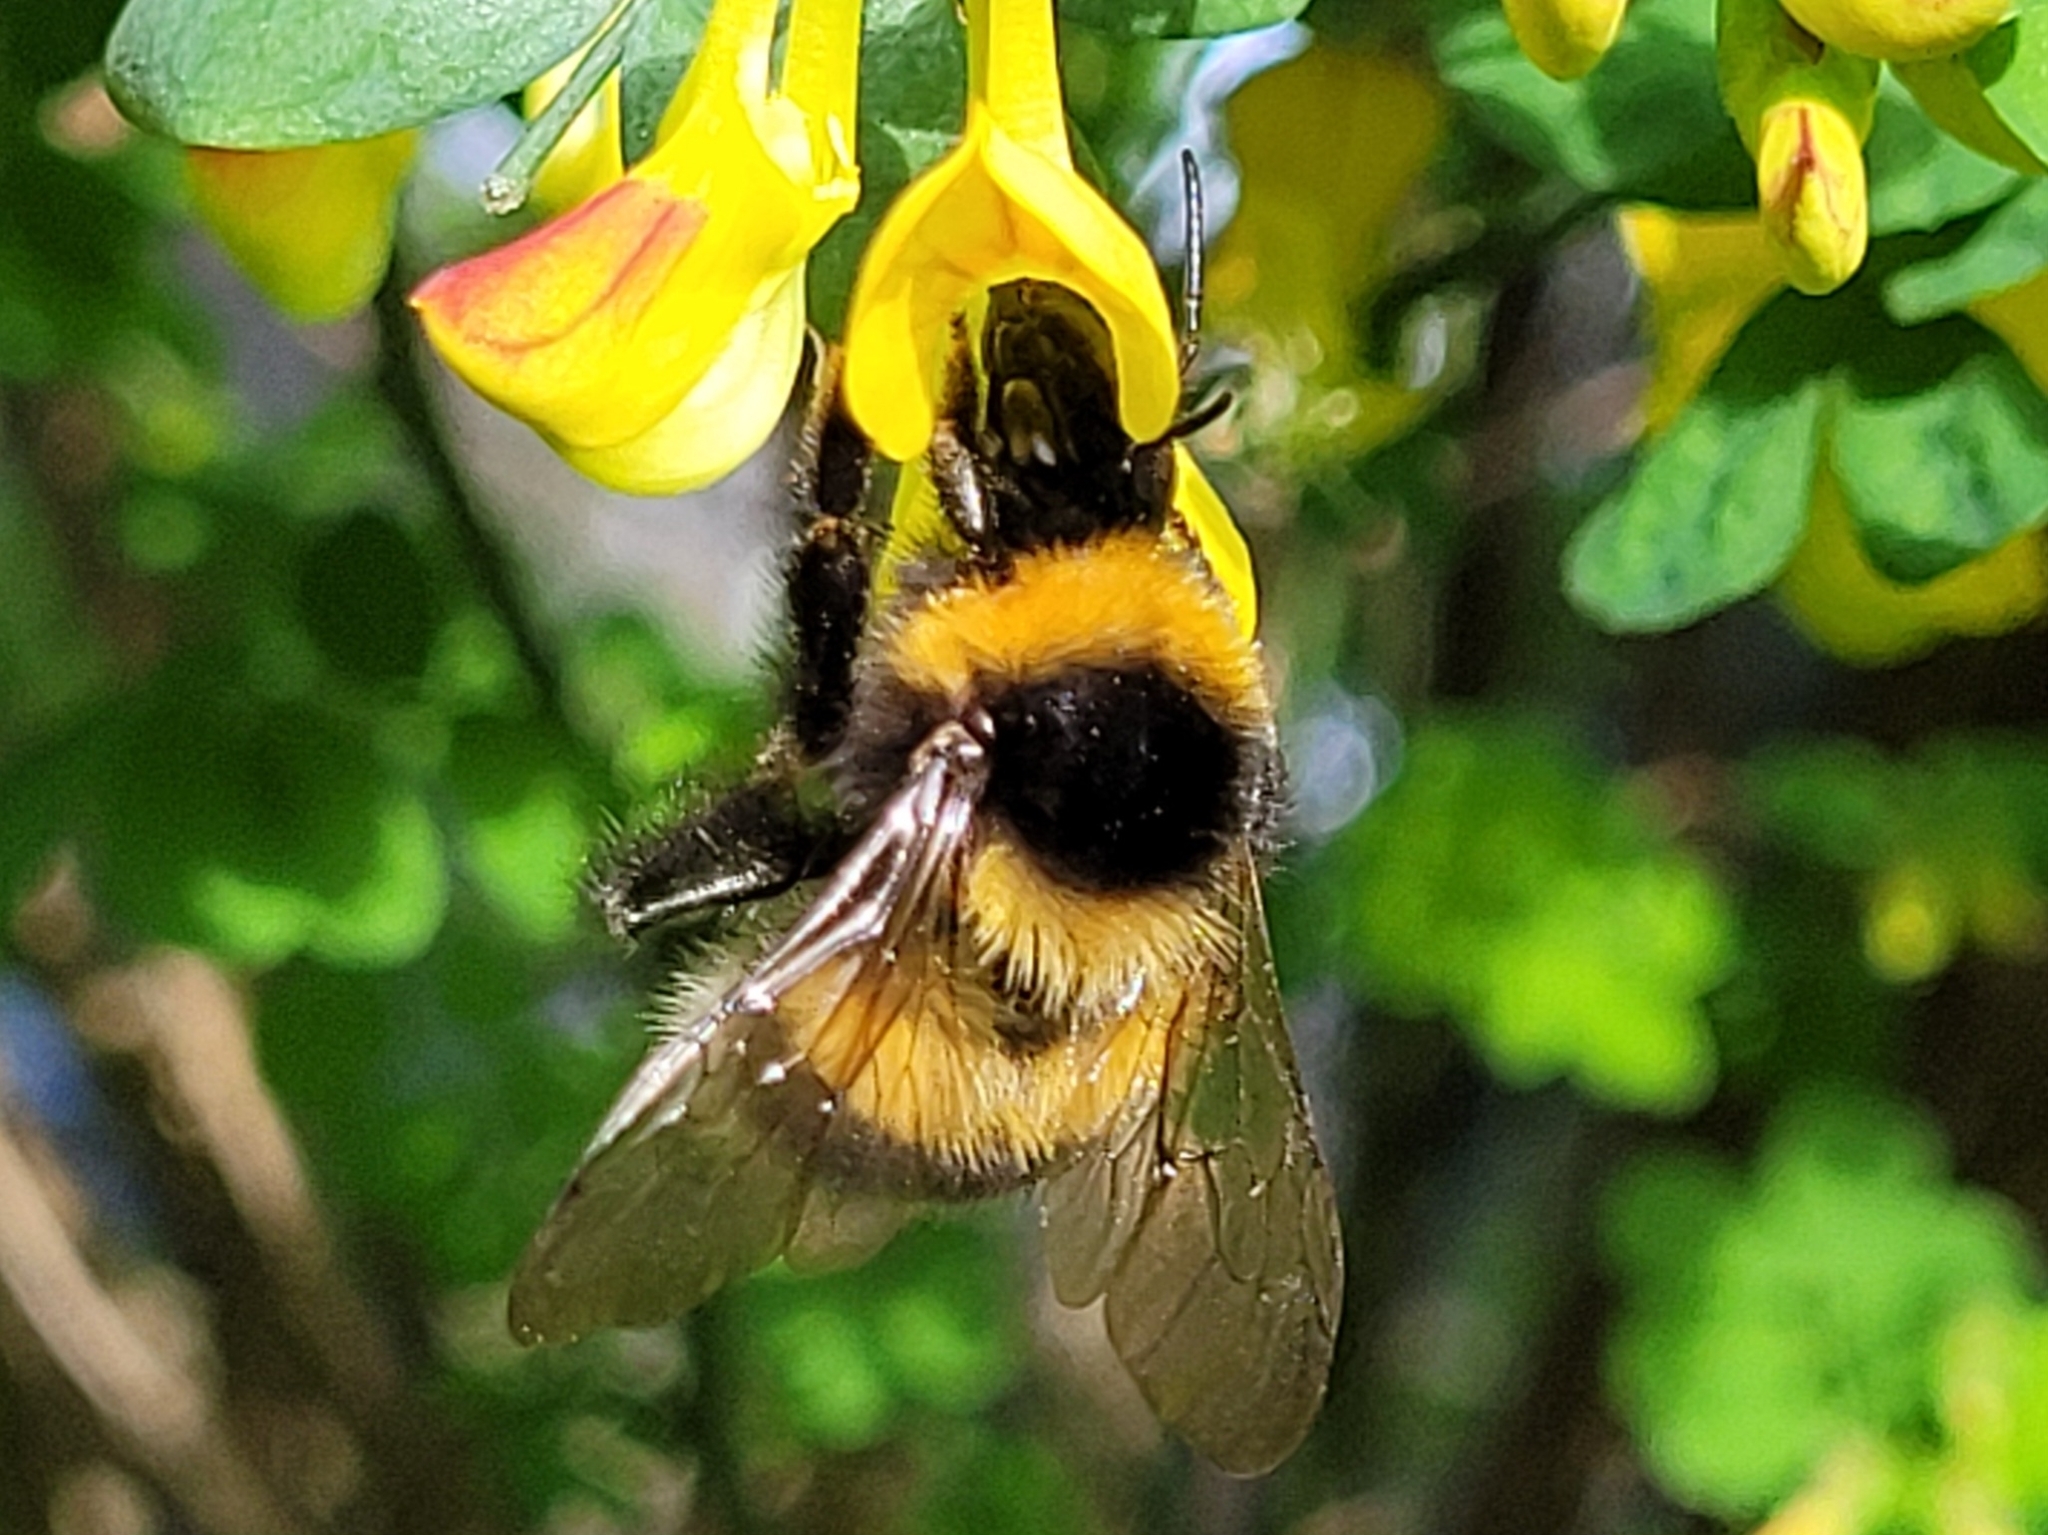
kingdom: Animalia
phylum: Arthropoda
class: Insecta
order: Hymenoptera
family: Apidae
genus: Bombus
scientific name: Bombus hortorum
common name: Garden bumblebee
